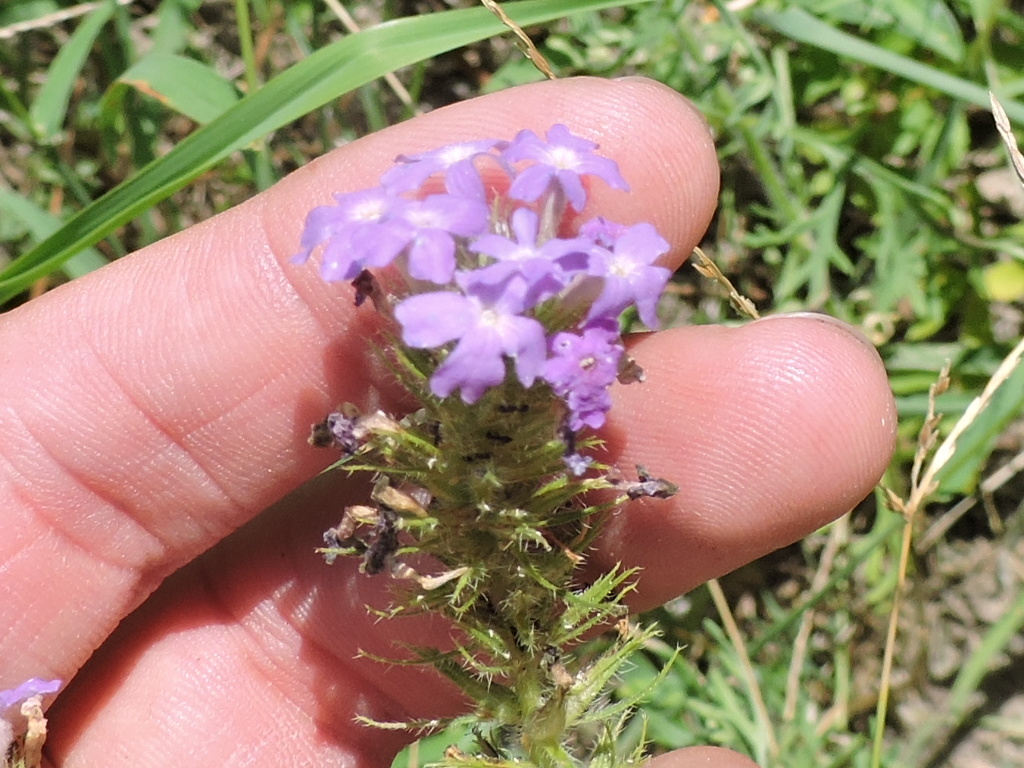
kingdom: Plantae
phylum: Tracheophyta
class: Magnoliopsida
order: Lamiales
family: Verbenaceae
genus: Verbena
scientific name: Verbena bipinnatifida
